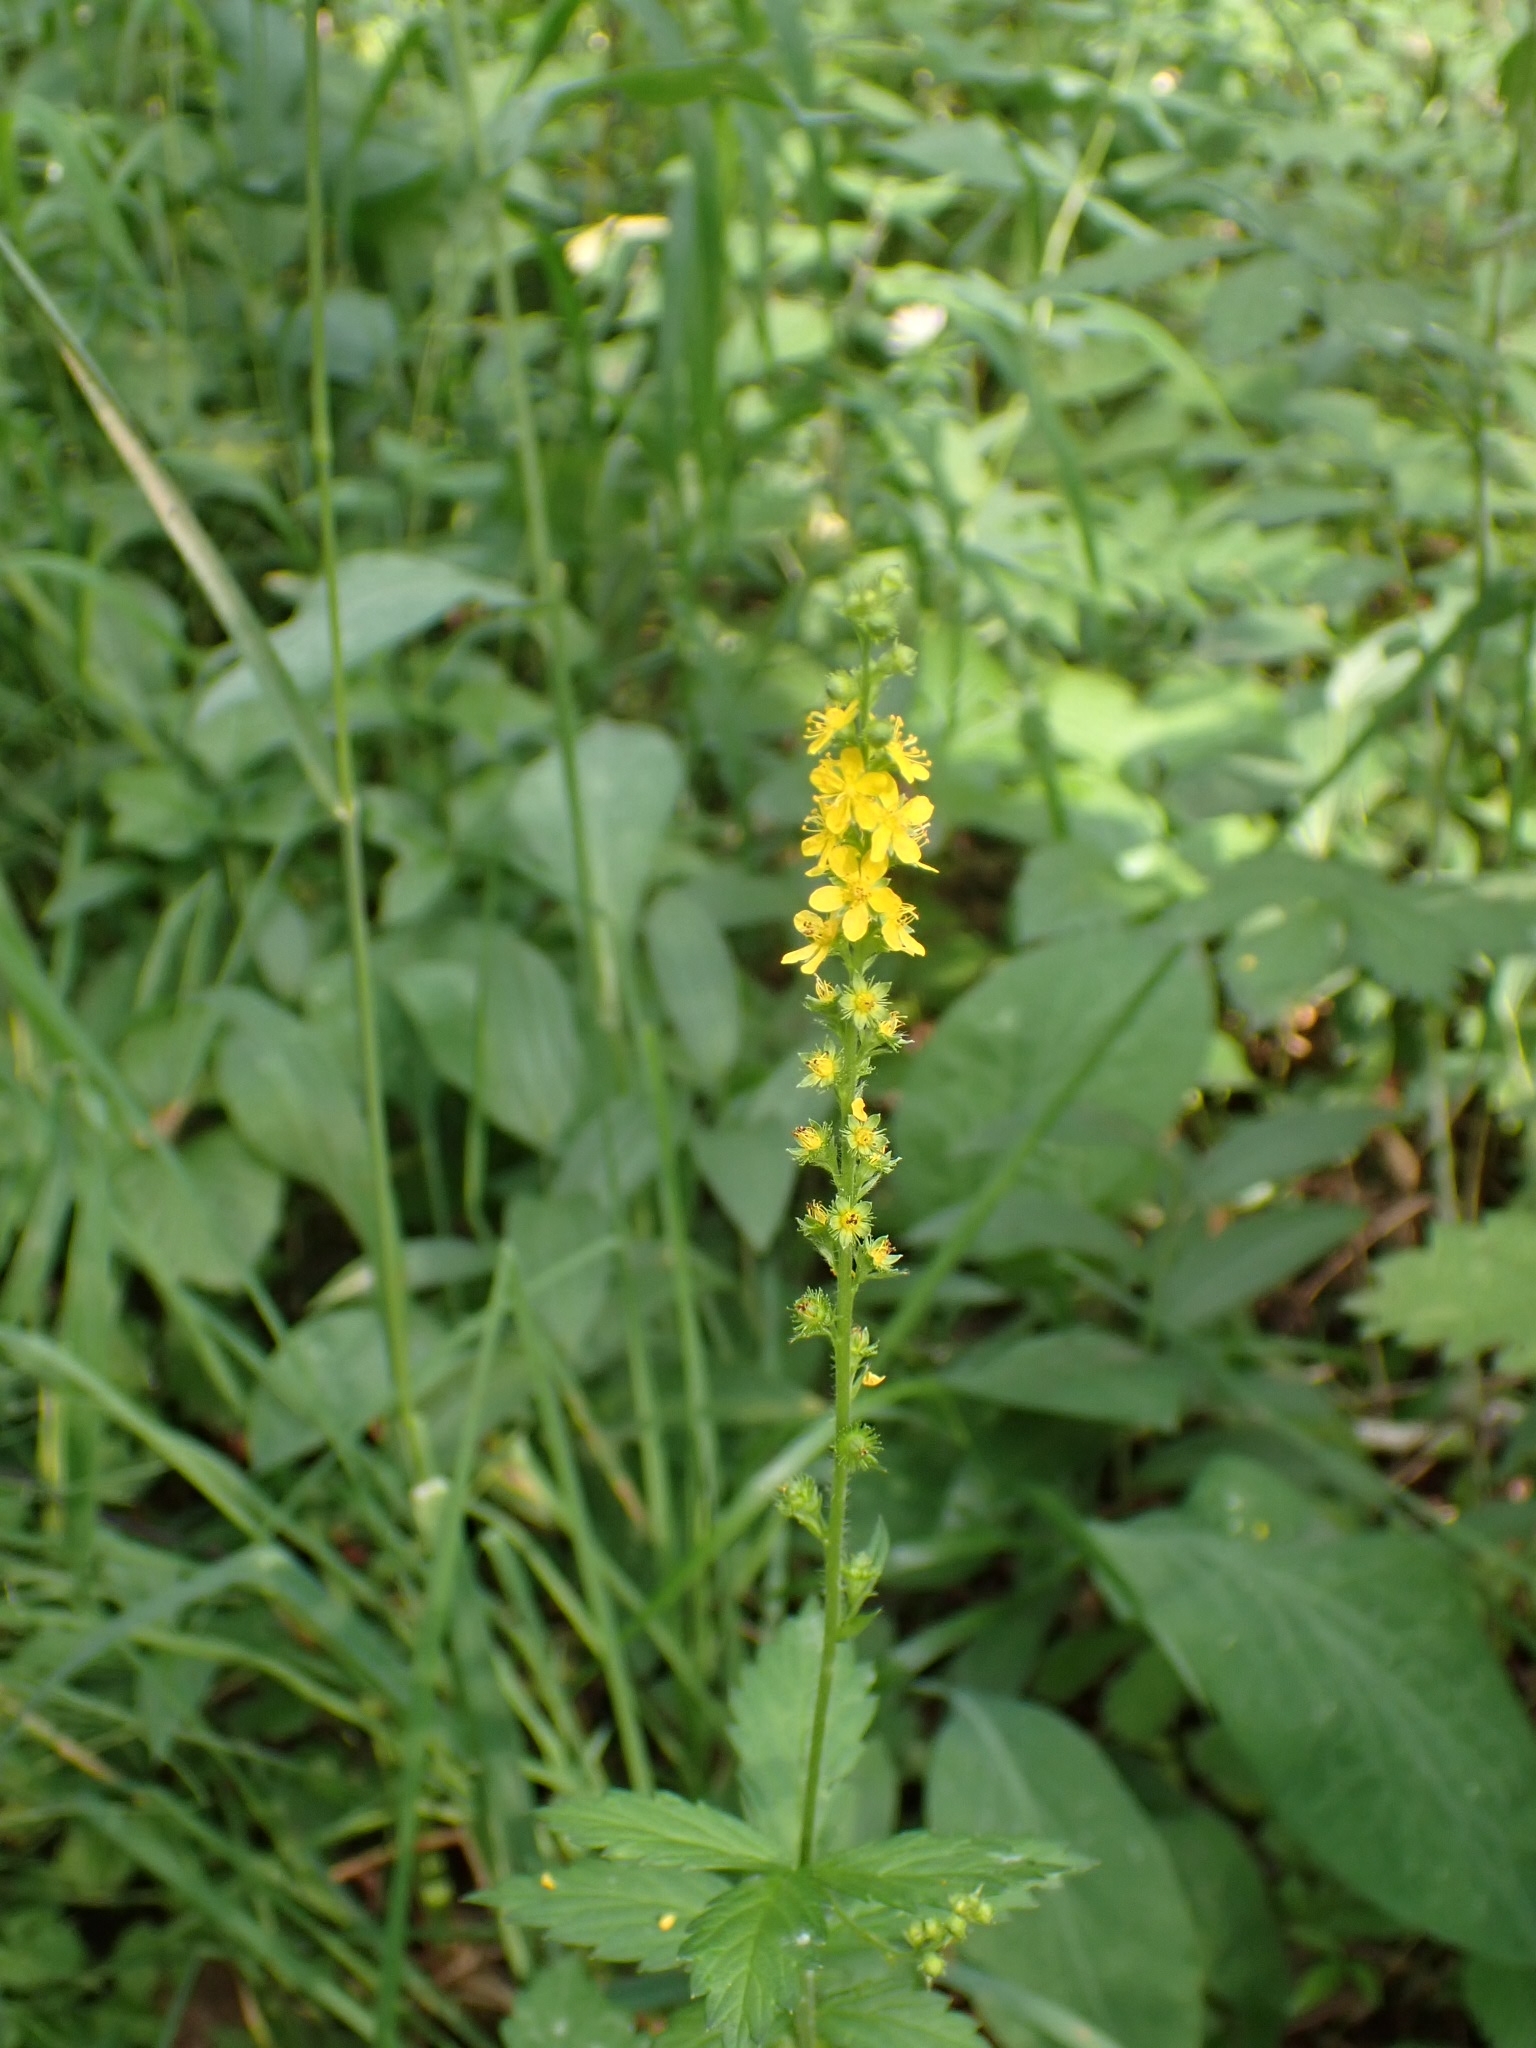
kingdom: Plantae
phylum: Tracheophyta
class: Magnoliopsida
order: Rosales
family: Rosaceae
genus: Agrimonia
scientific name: Agrimonia pilosa
